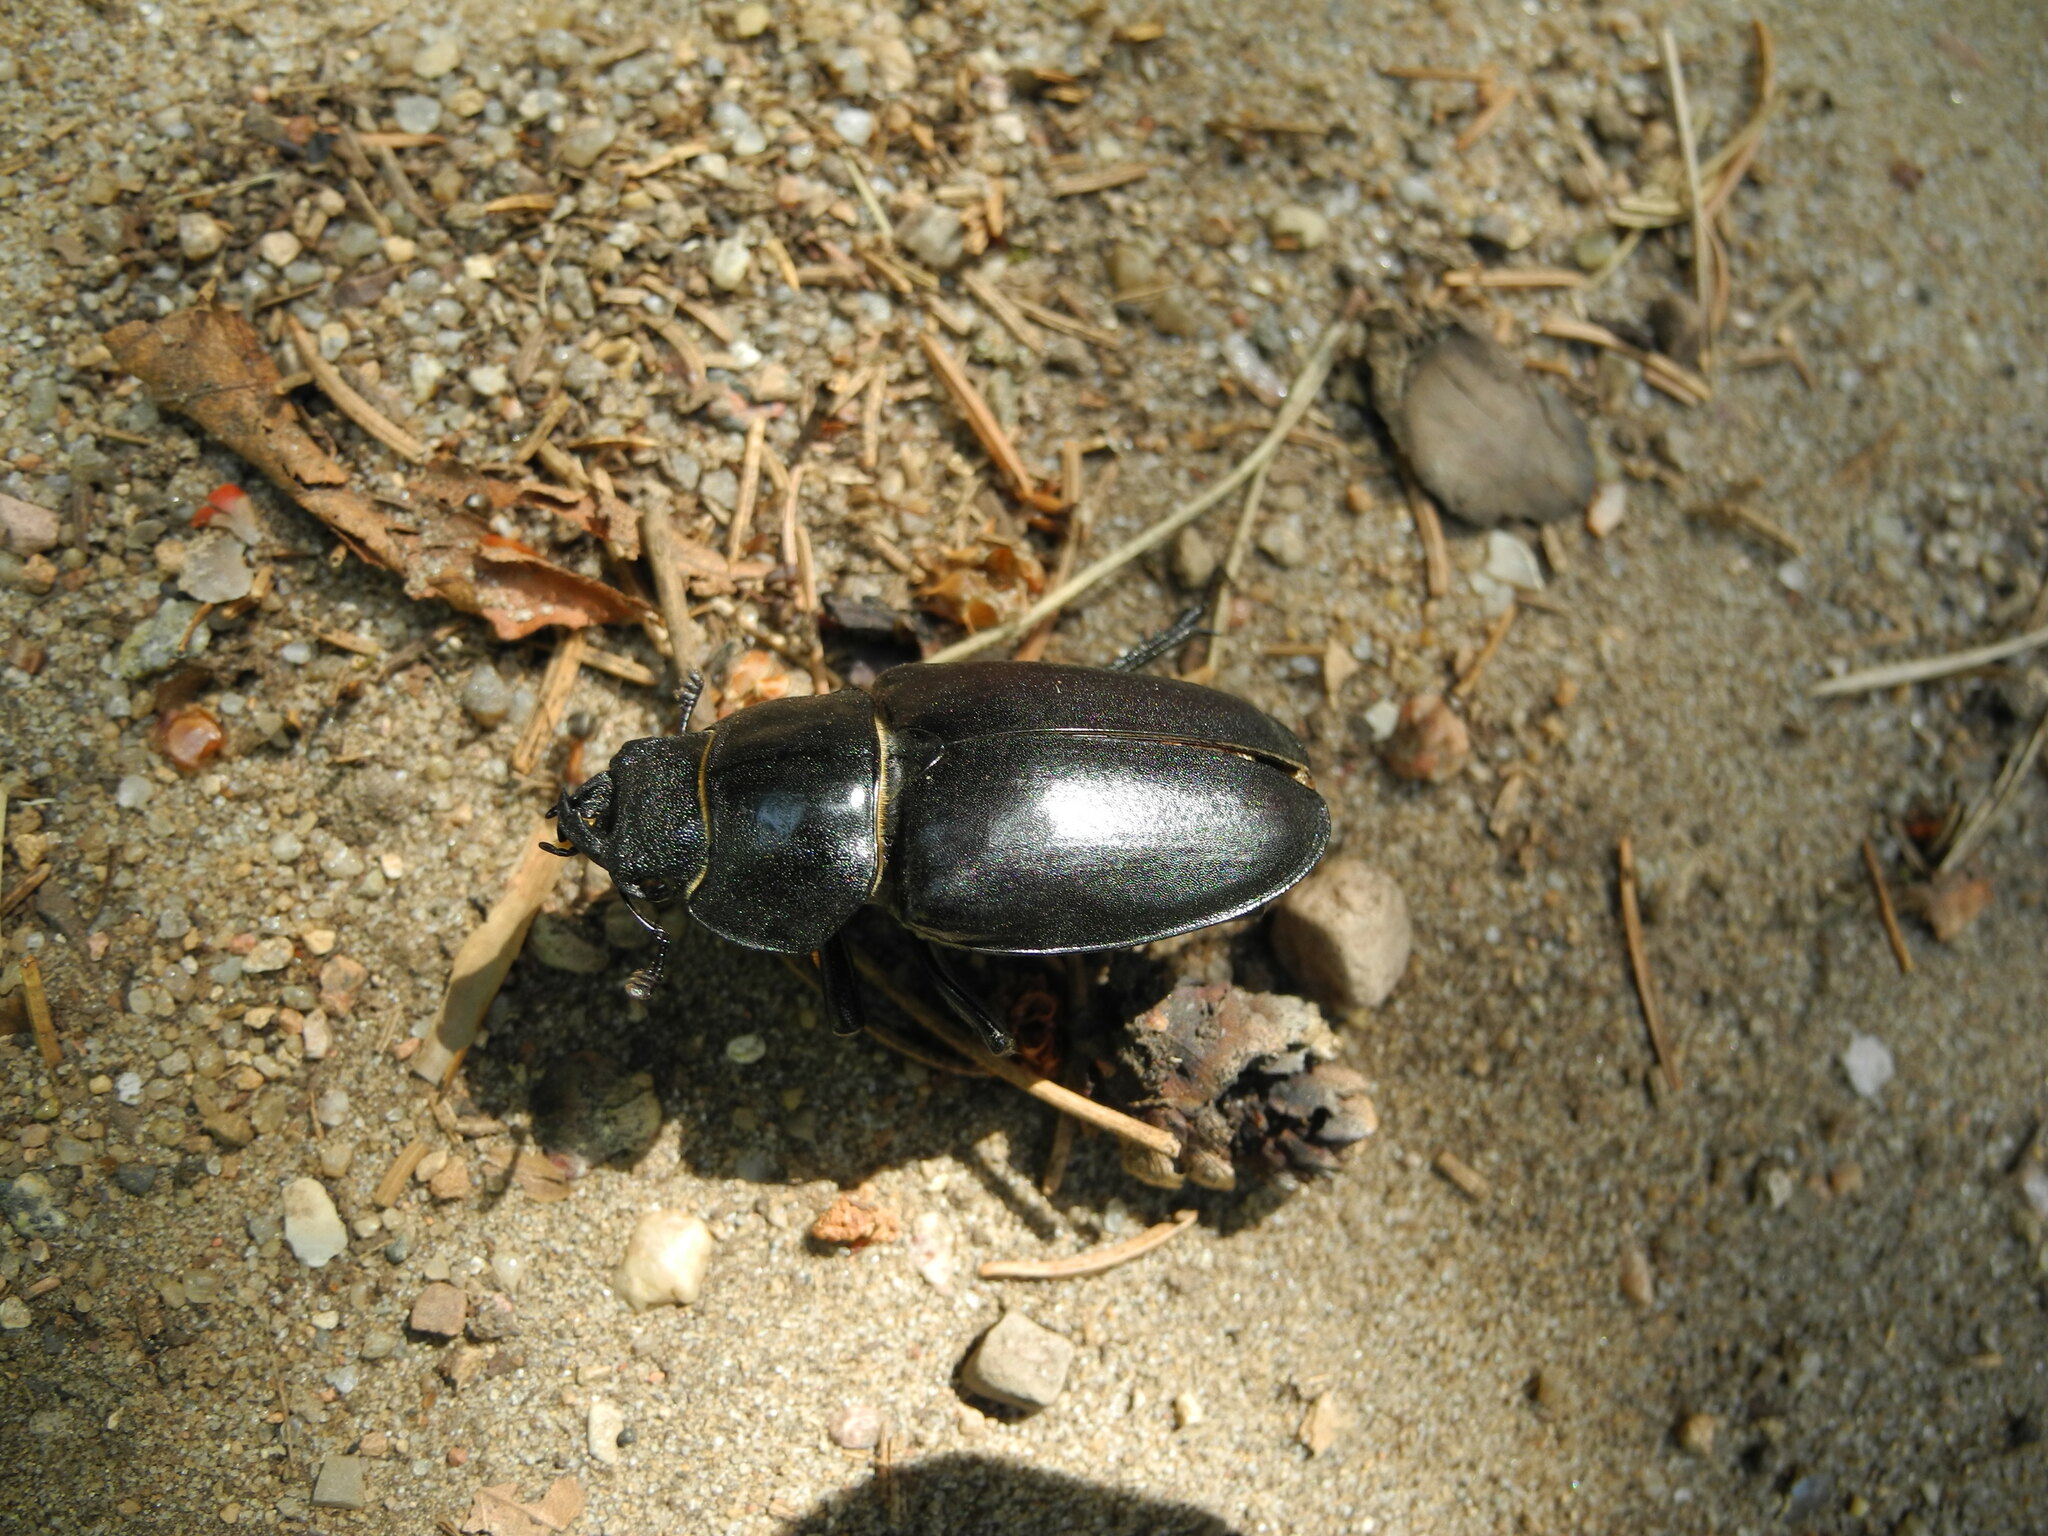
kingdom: Animalia
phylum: Arthropoda
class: Insecta
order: Coleoptera
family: Lucanidae
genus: Lucanus
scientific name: Lucanus cervus
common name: Stag beetle
